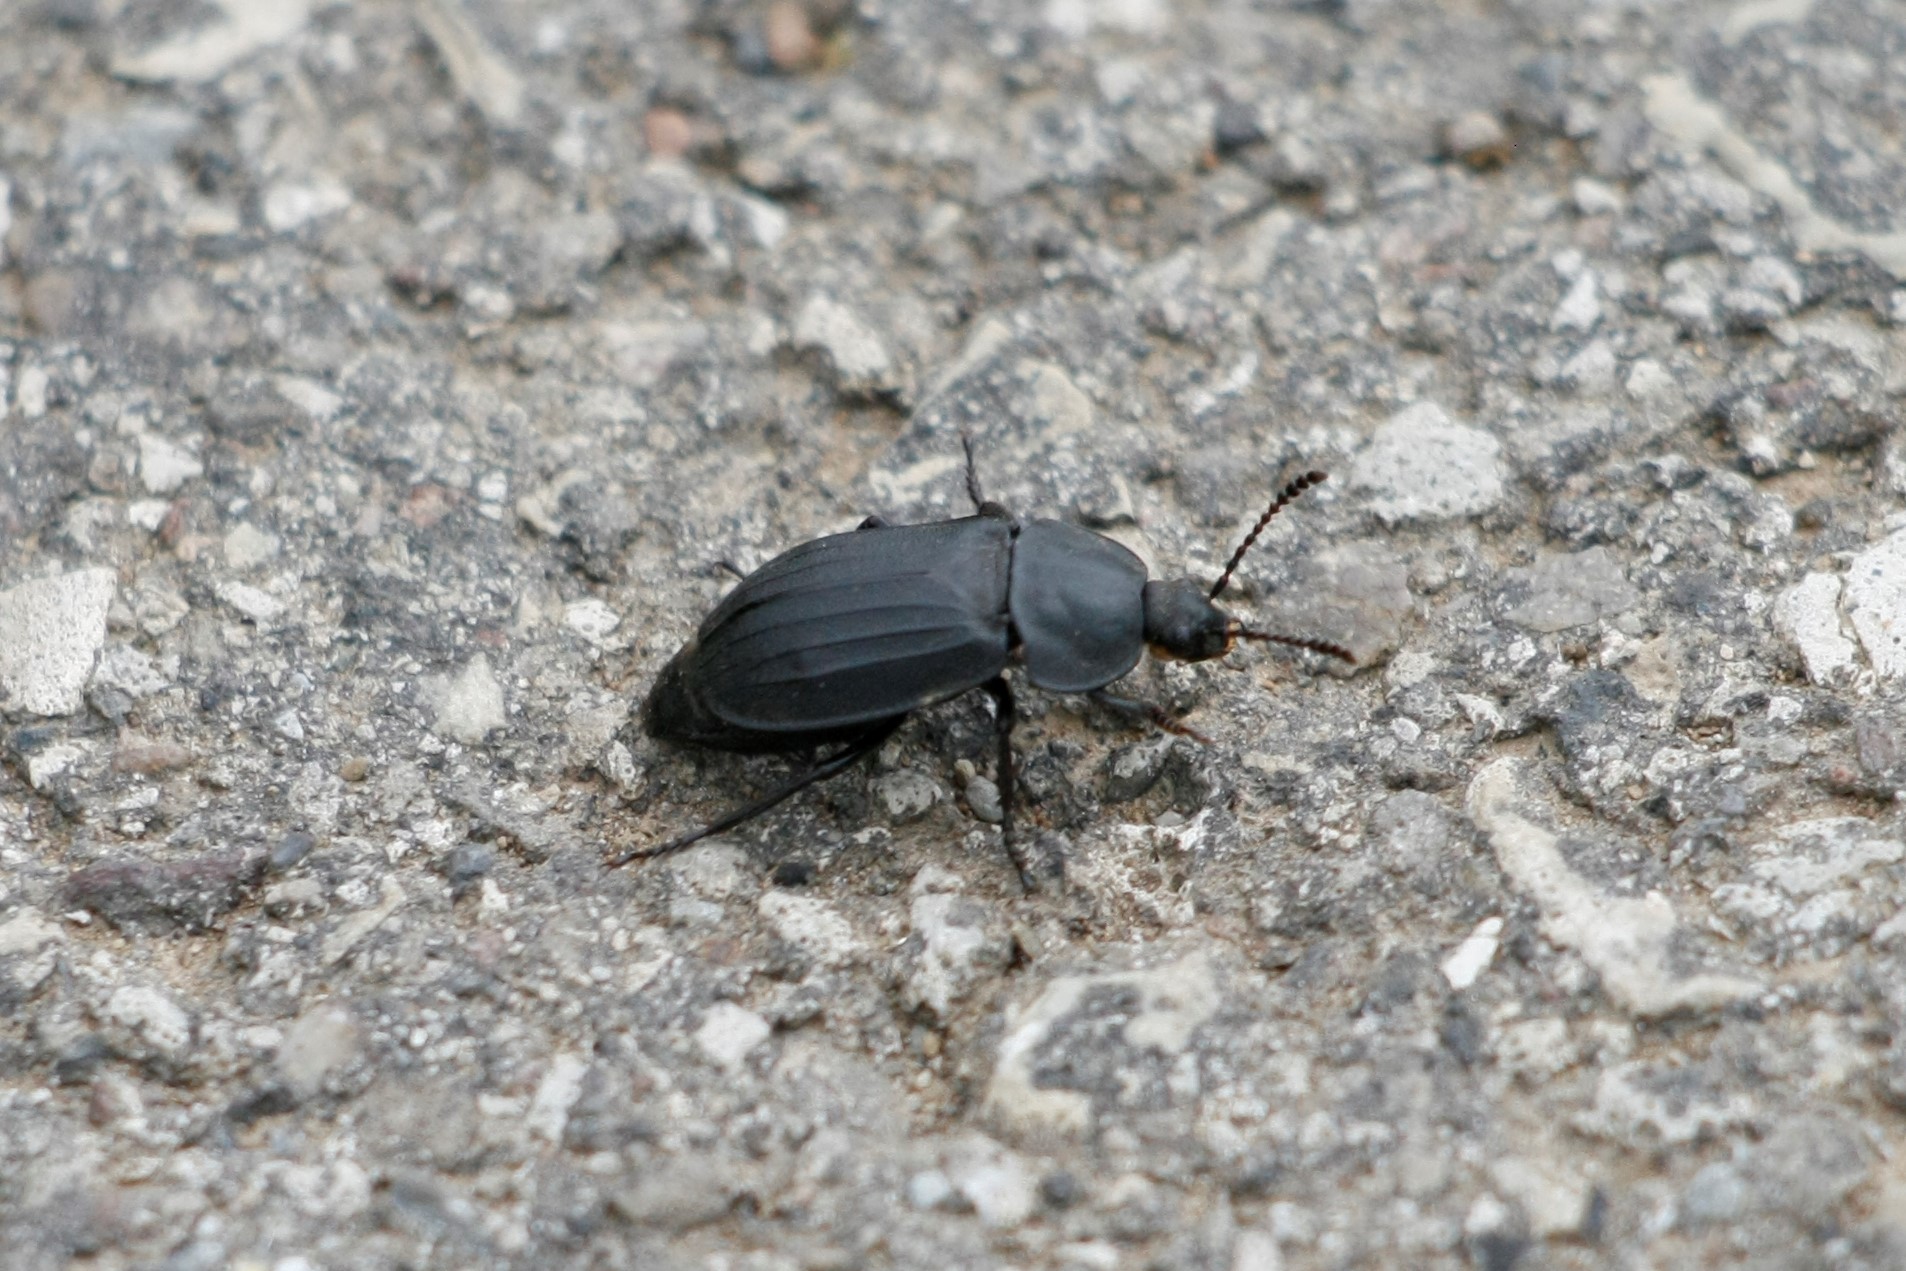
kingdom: Animalia
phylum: Arthropoda
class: Insecta
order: Coleoptera
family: Staphylinidae
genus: Silpha
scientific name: Silpha tristis
